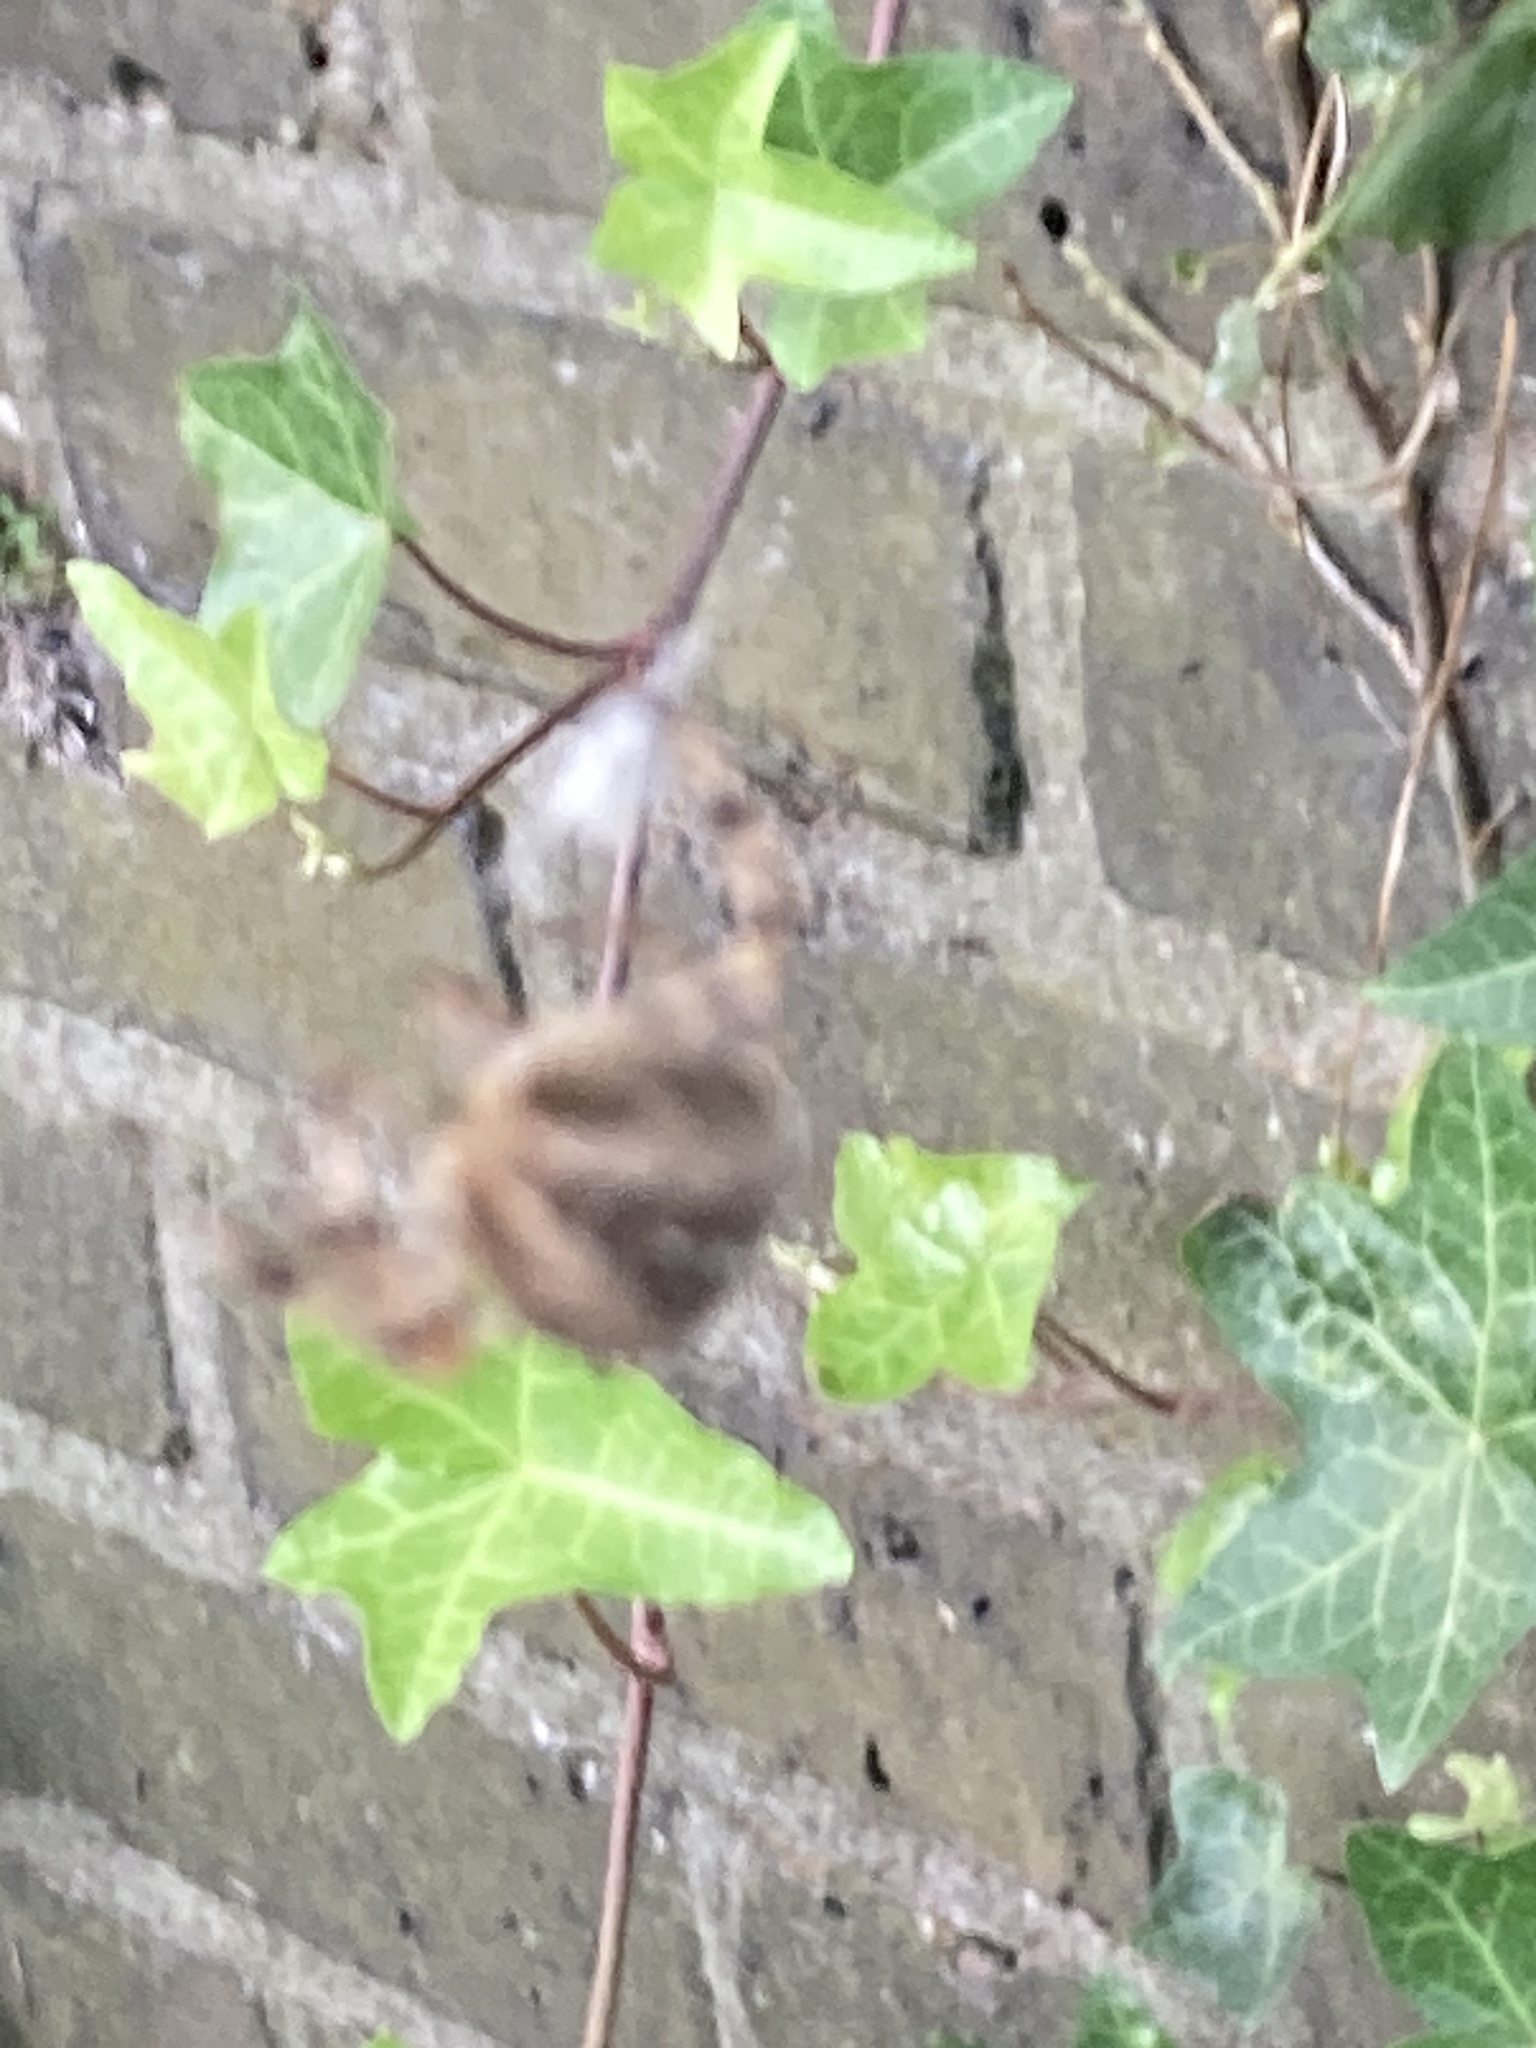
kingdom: Animalia
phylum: Arthropoda
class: Arachnida
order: Araneae
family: Araneidae
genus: Araneus
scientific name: Araneus diadematus
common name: Cross orbweaver
